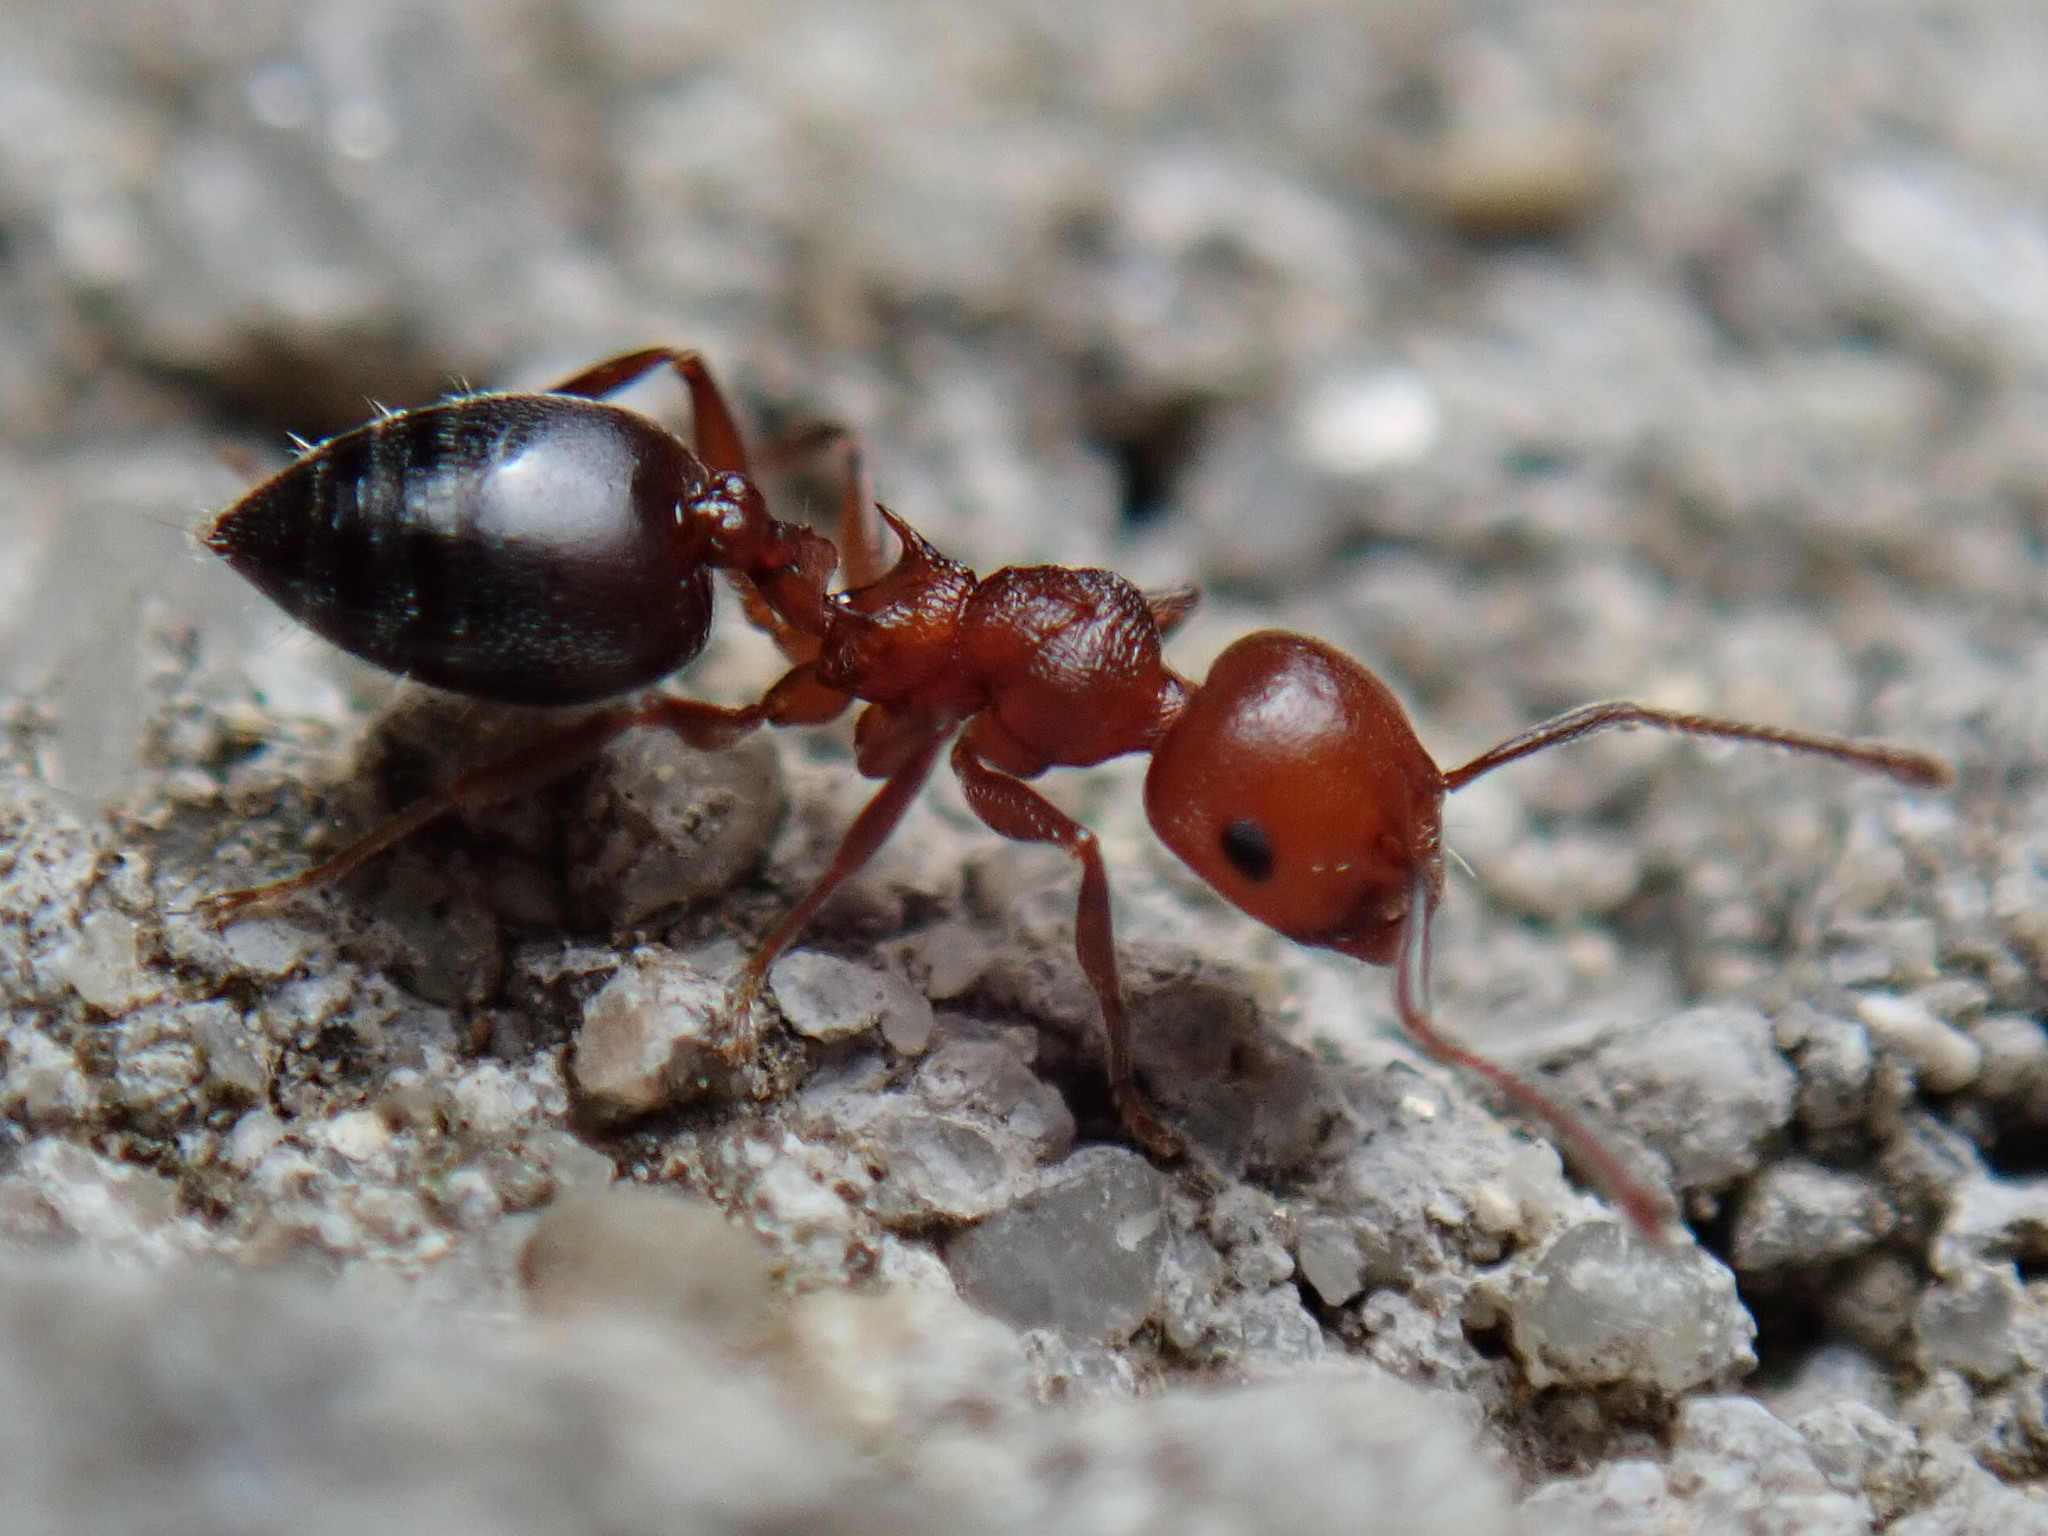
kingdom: Animalia
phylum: Arthropoda
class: Insecta
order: Hymenoptera
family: Formicidae
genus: Crematogaster
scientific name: Crematogaster schmidti
